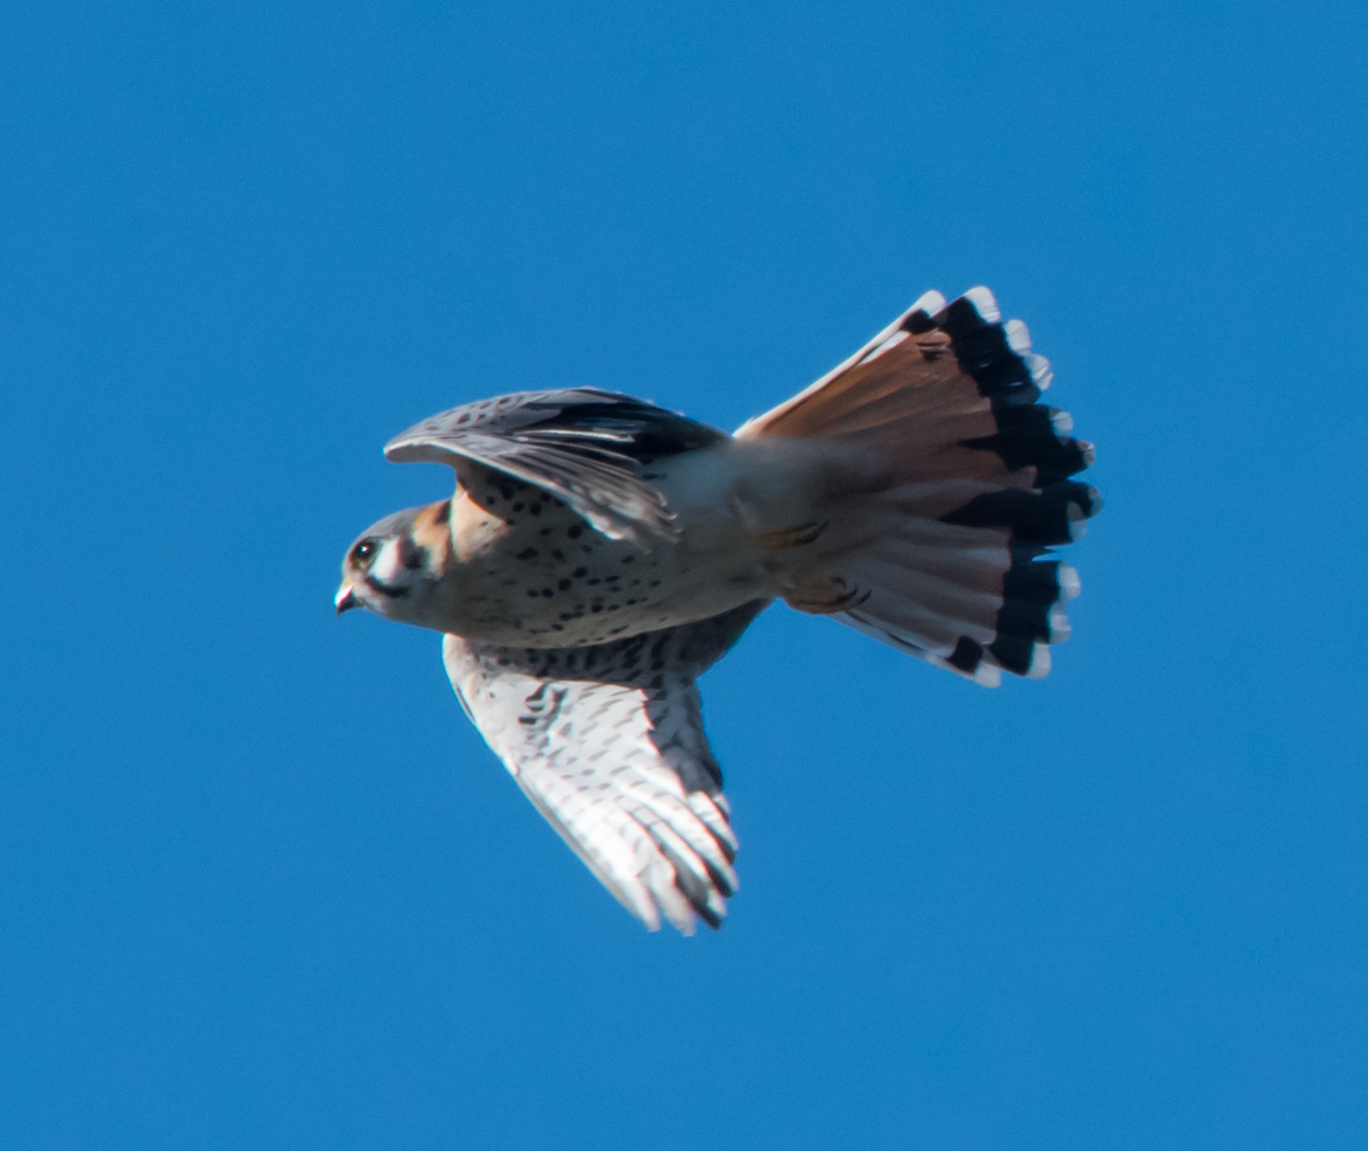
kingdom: Animalia
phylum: Chordata
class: Aves
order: Falconiformes
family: Falconidae
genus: Falco
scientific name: Falco sparverius
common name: American kestrel
